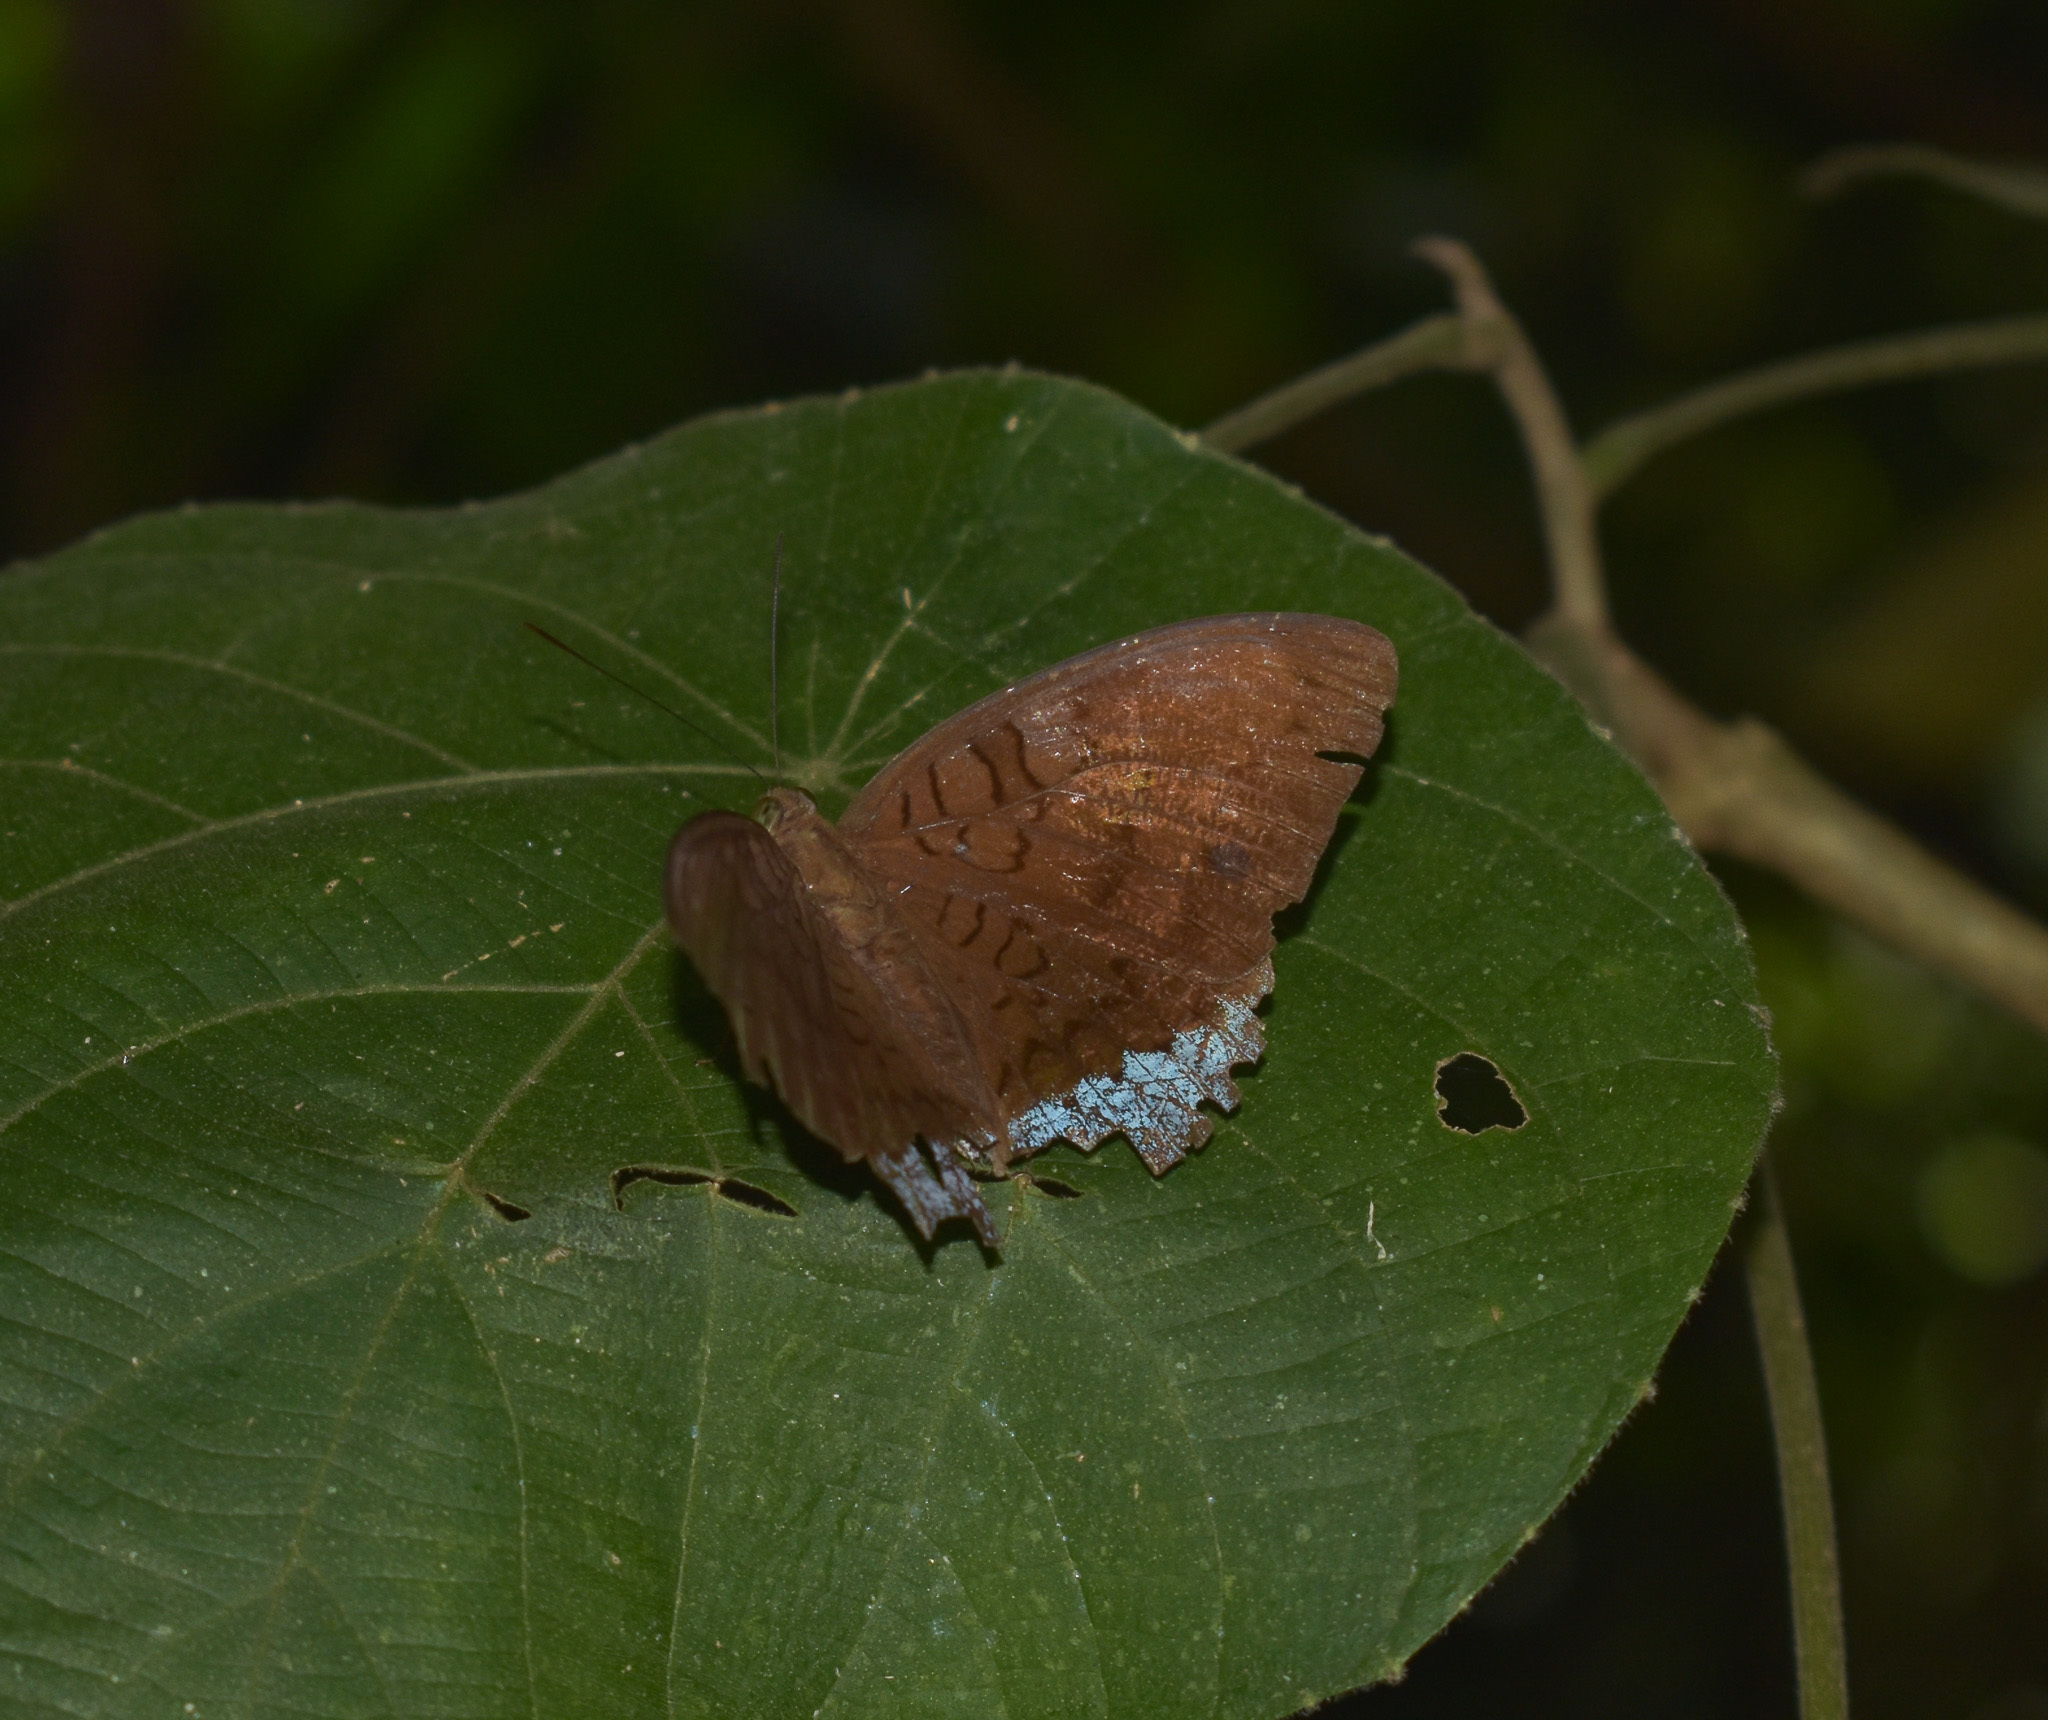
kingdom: Animalia
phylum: Arthropoda
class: Insecta
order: Lepidoptera
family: Nymphalidae
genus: Tanaecia
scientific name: Tanaecia julii
